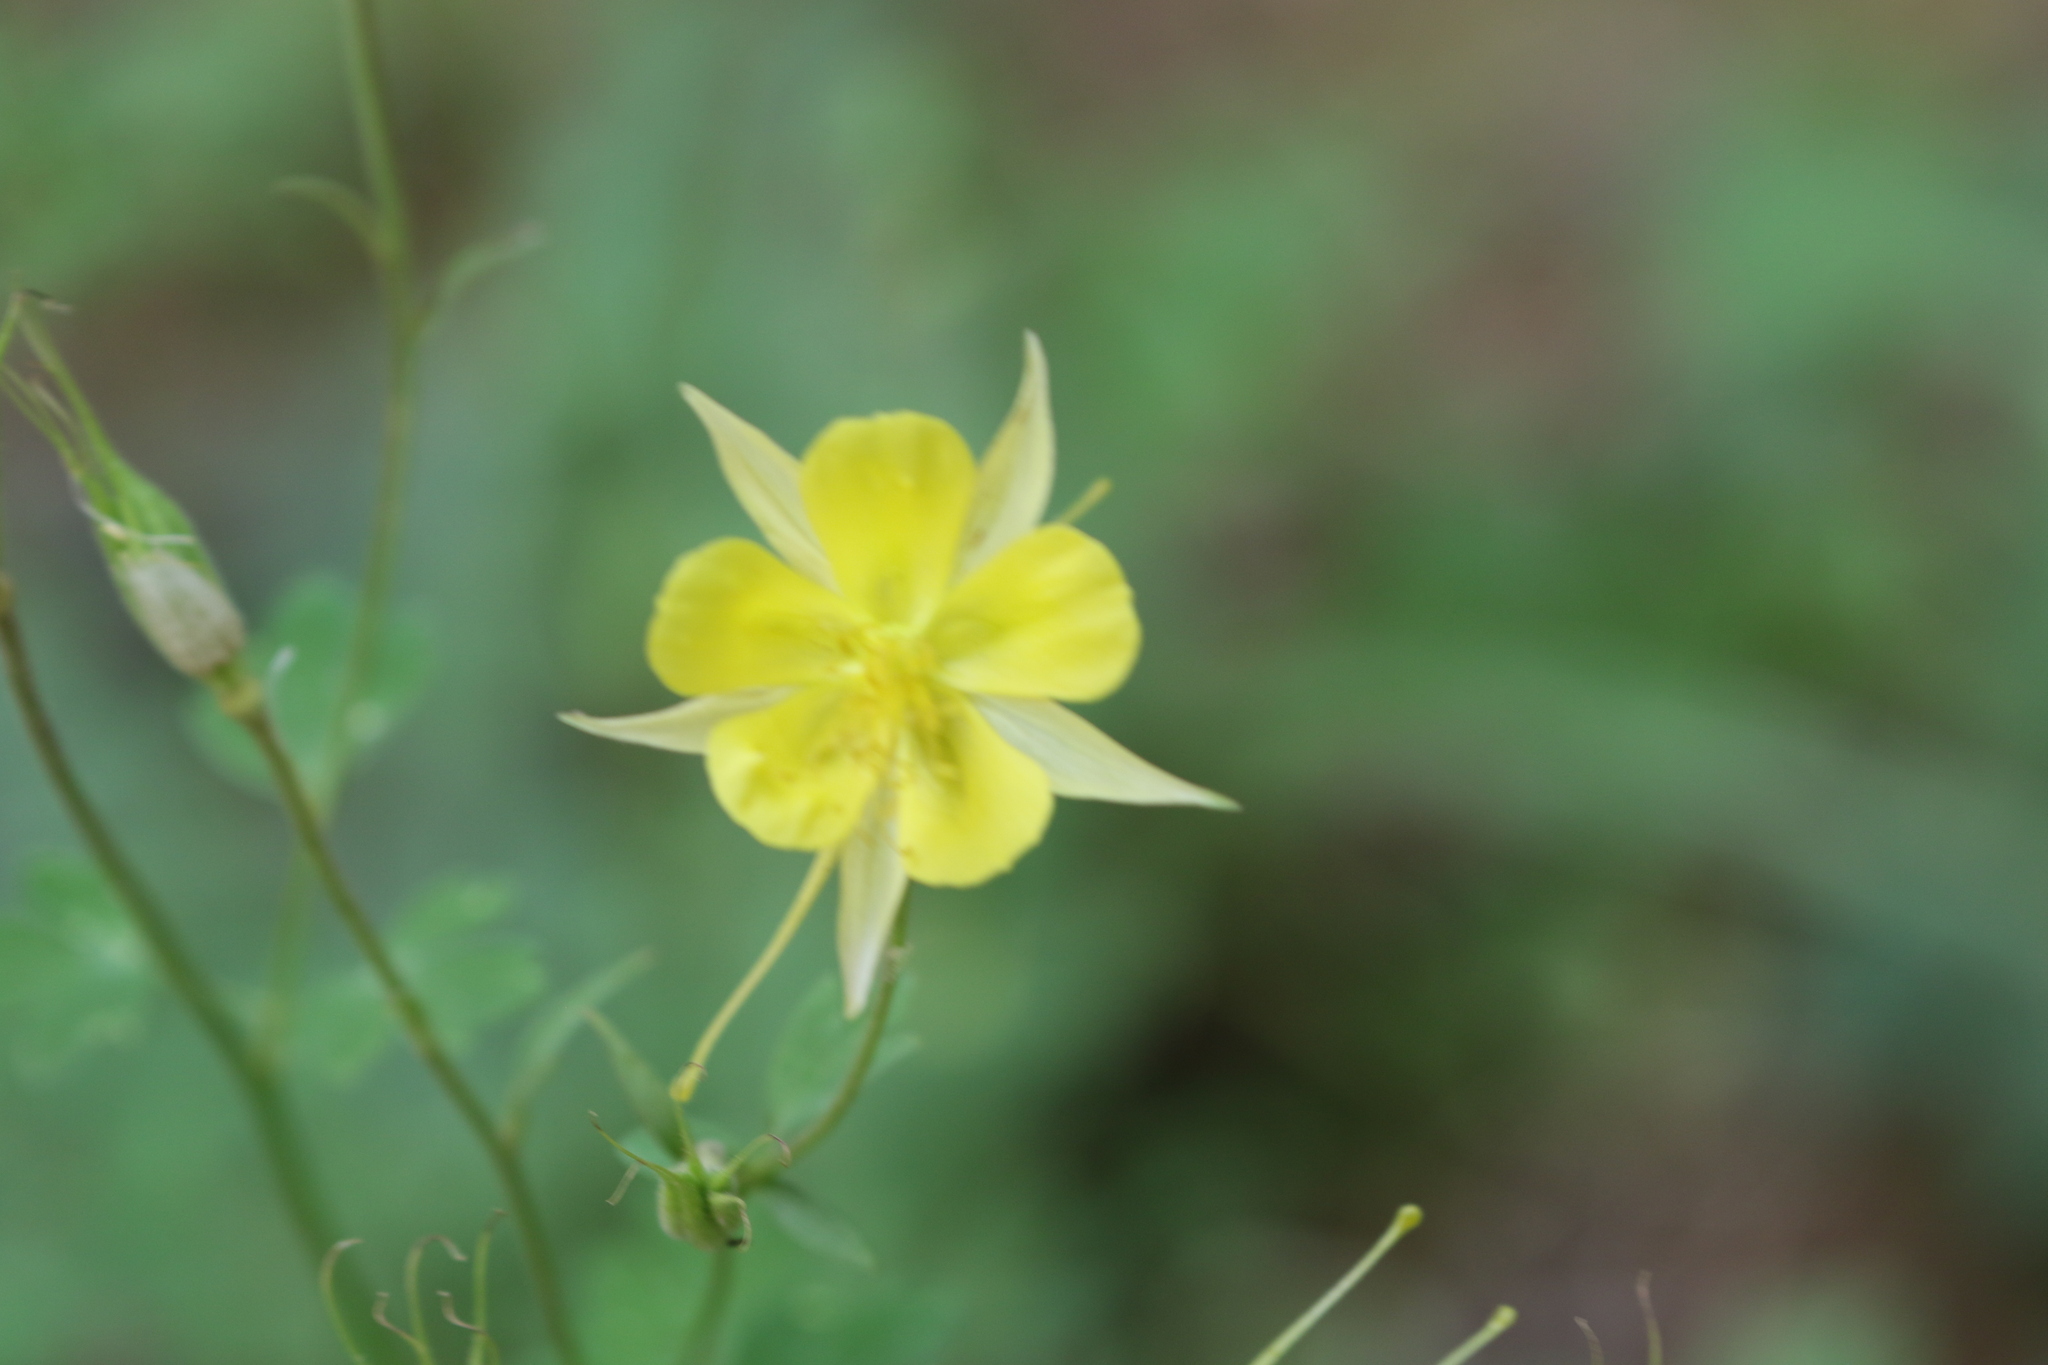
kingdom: Plantae
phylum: Tracheophyta
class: Magnoliopsida
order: Ranunculales
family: Ranunculaceae
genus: Aquilegia
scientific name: Aquilegia chrysantha
